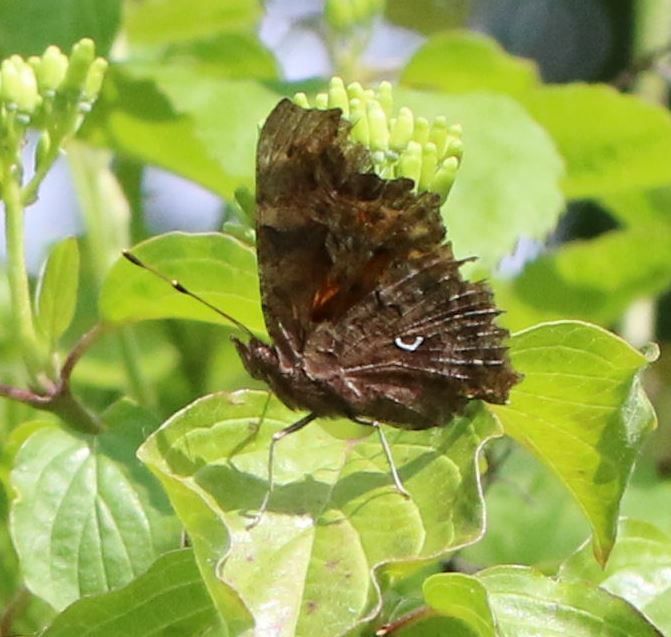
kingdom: Animalia
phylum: Arthropoda
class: Insecta
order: Lepidoptera
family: Nymphalidae
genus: Polygonia
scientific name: Polygonia c-album
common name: Comma
